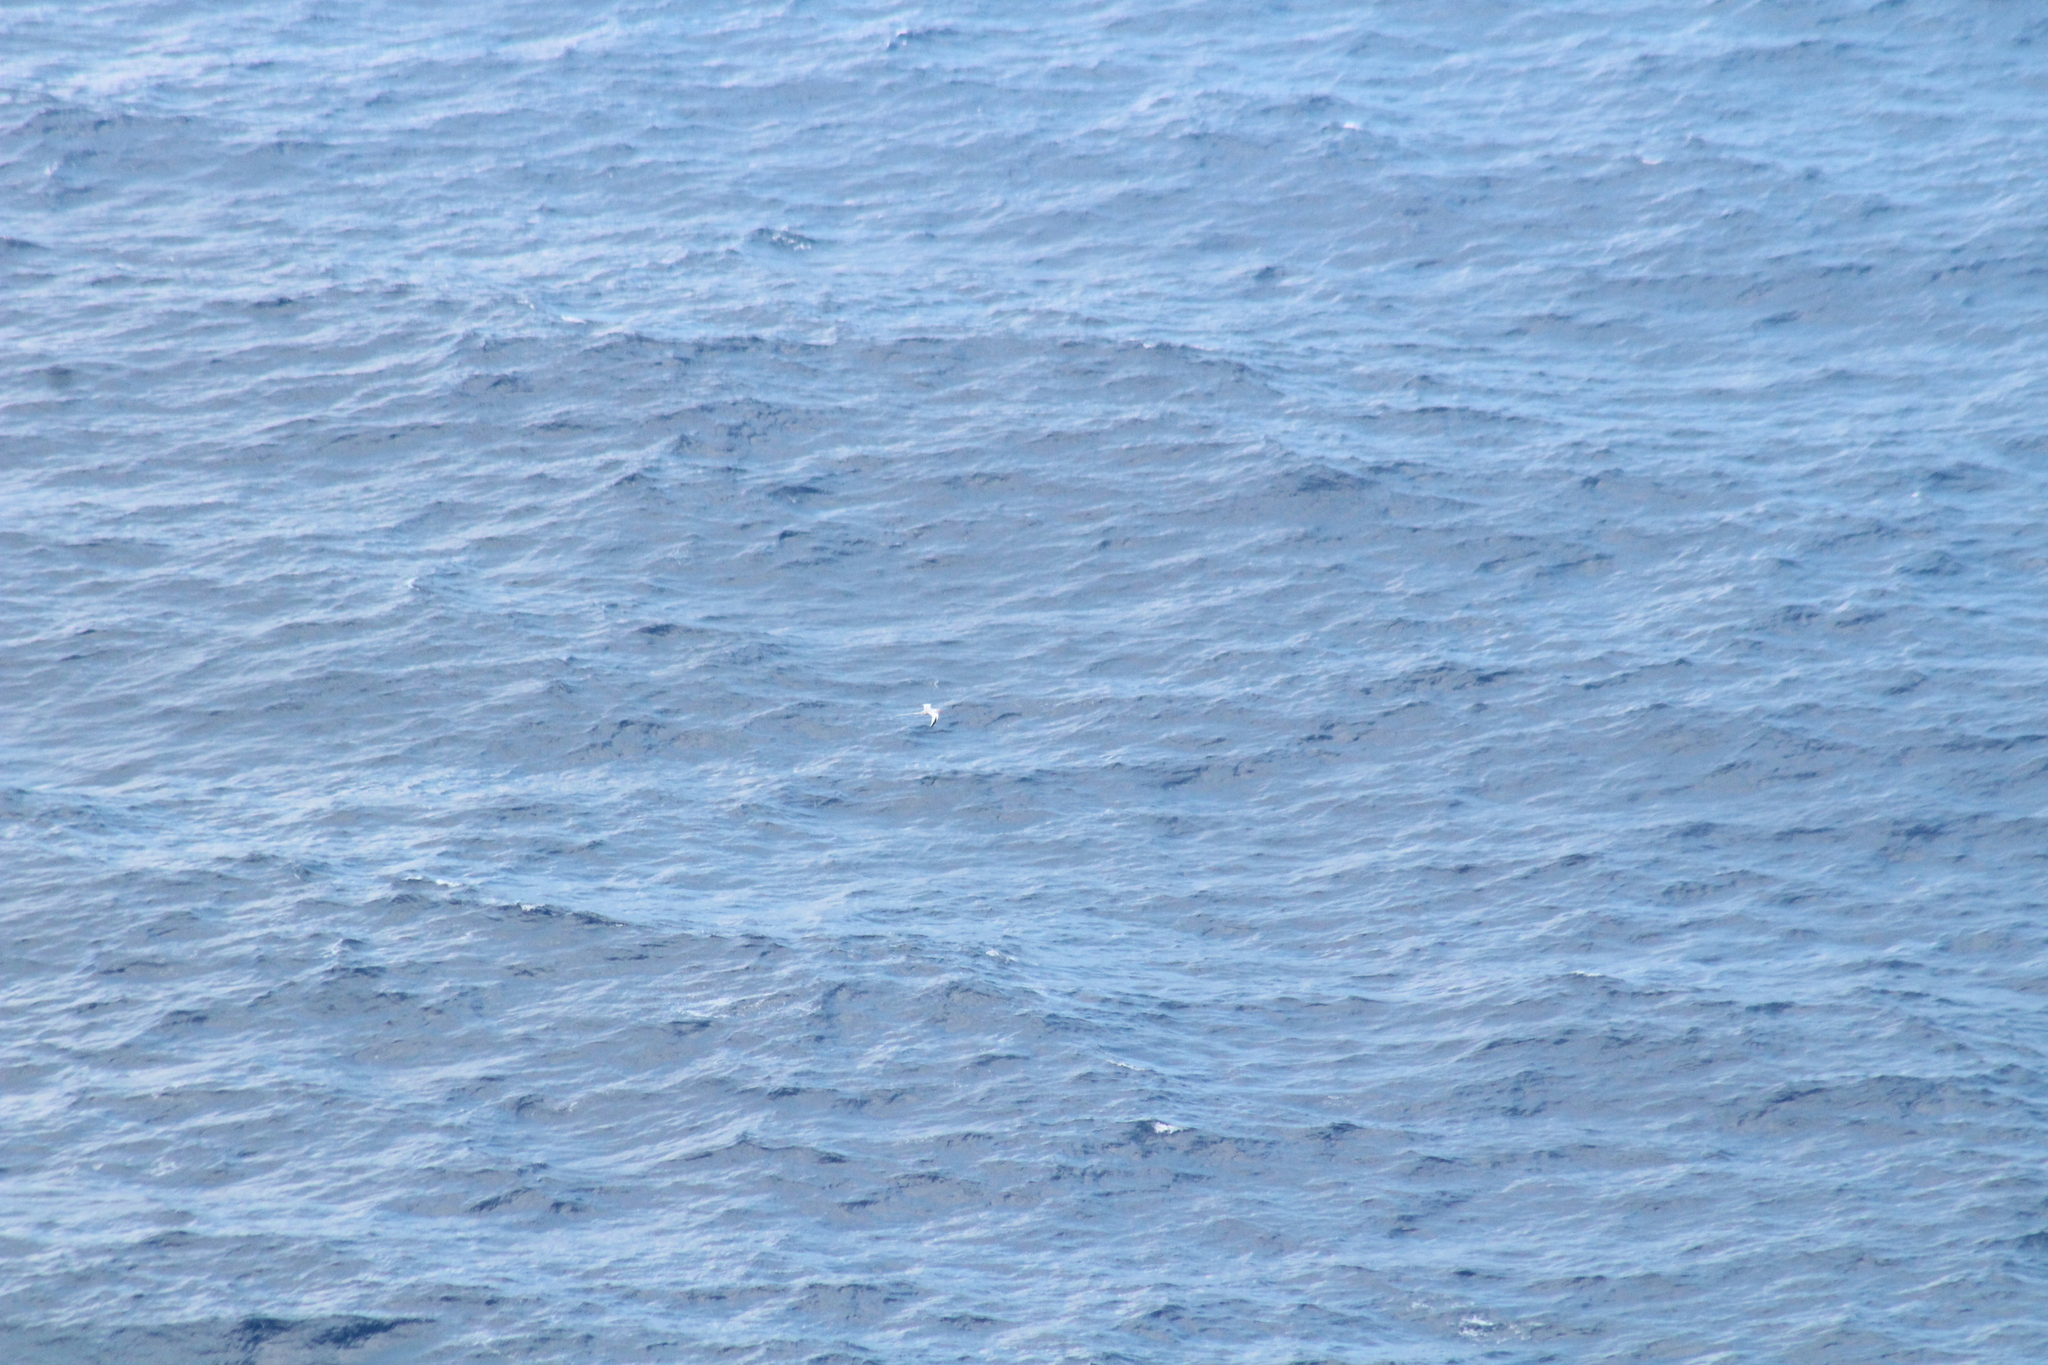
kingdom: Animalia
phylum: Chordata
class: Aves
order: Phaethontiformes
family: Phaethontidae
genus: Phaethon
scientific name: Phaethon aethereus
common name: Red-billed tropicbird
